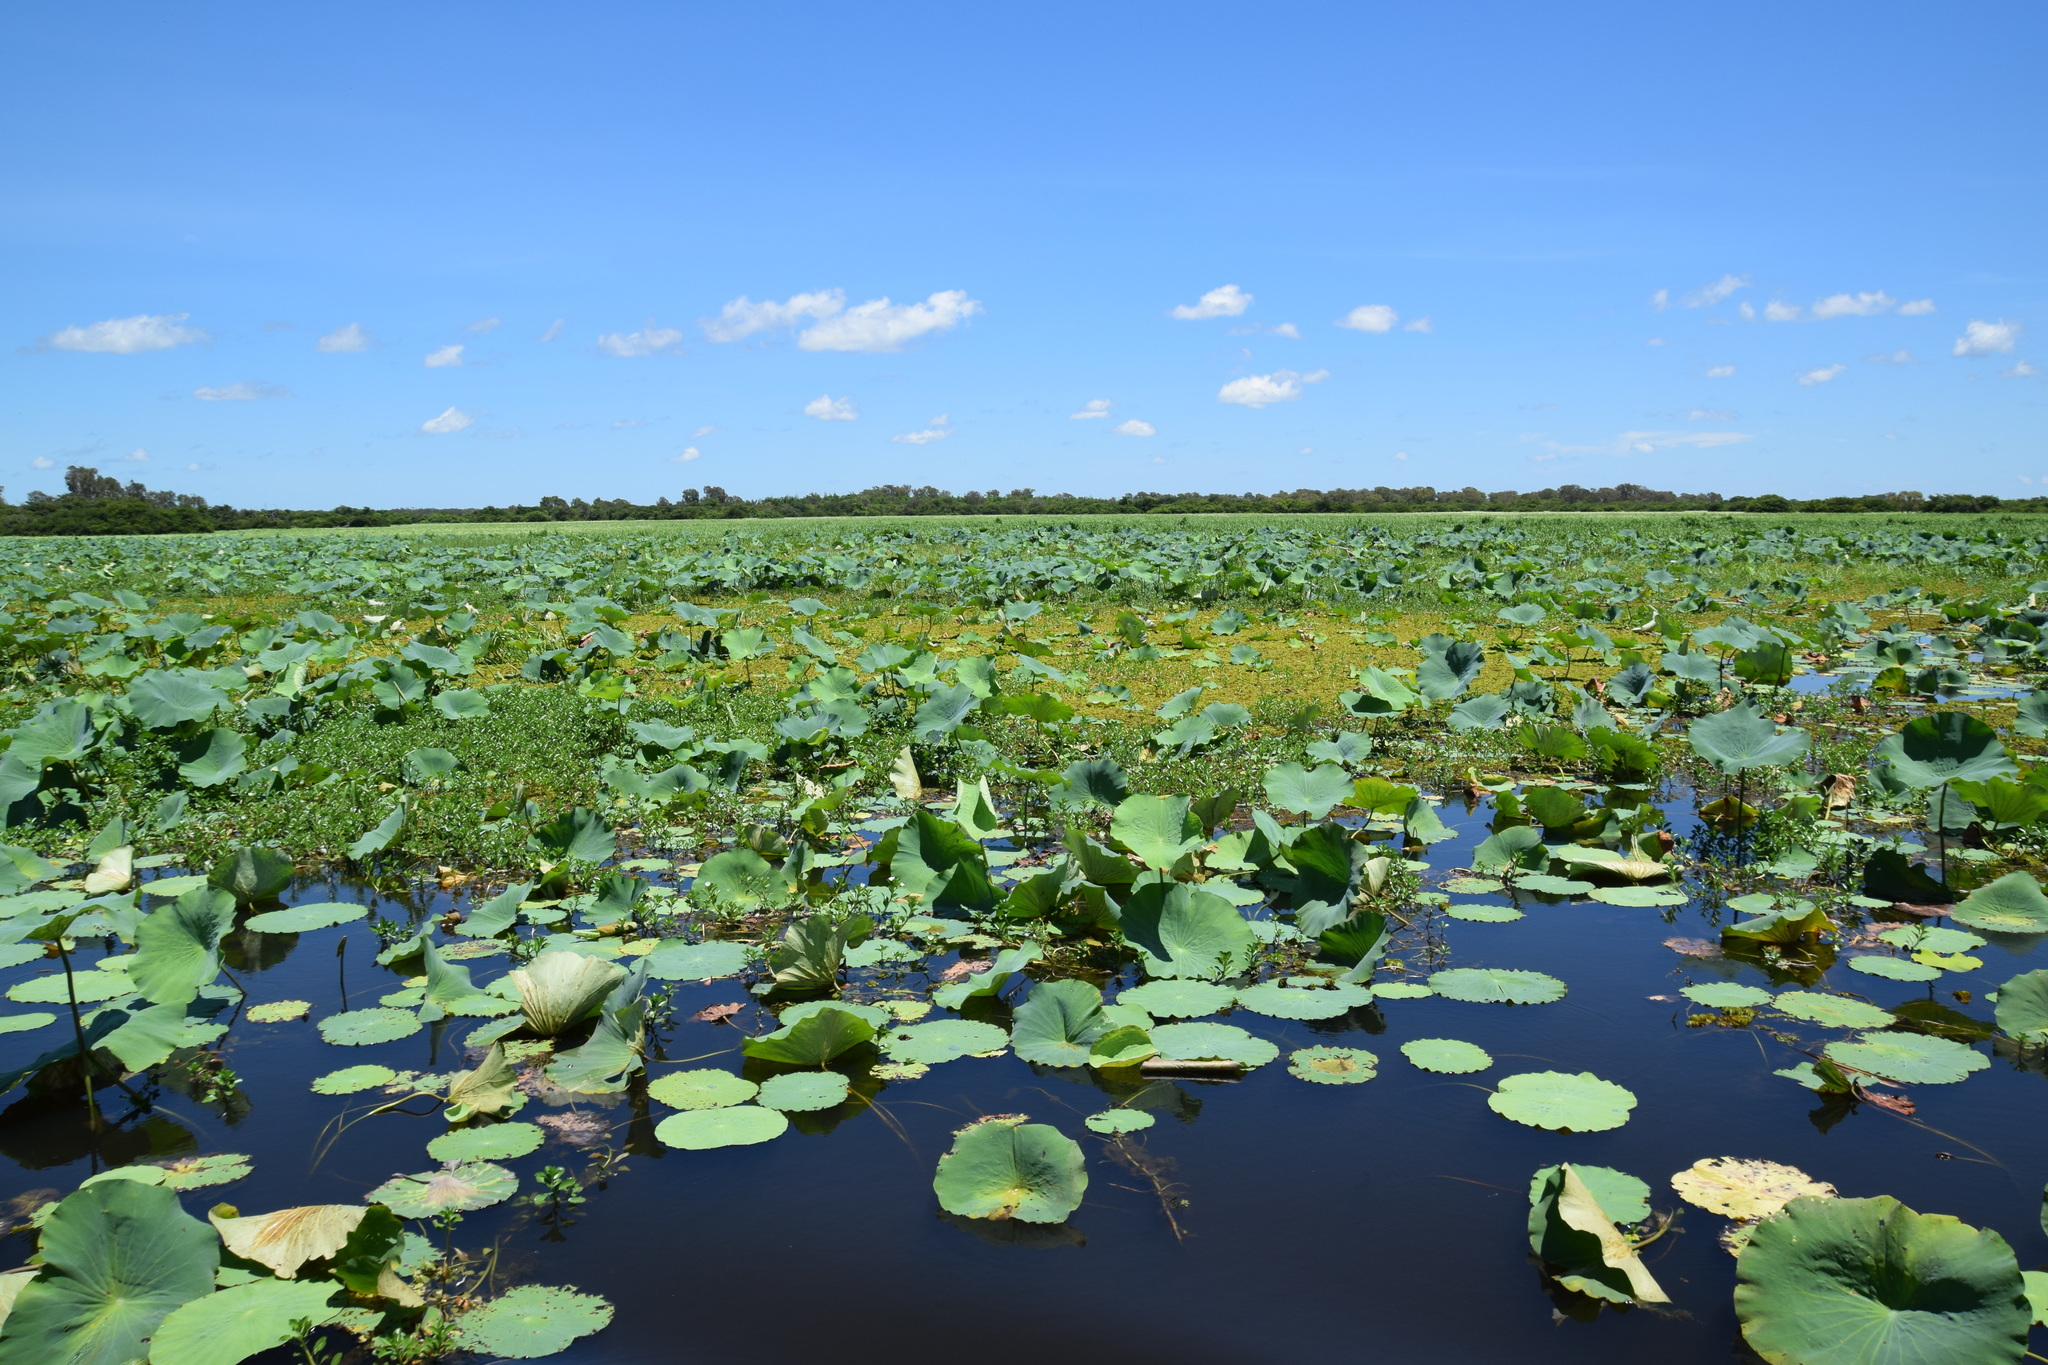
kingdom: Plantae
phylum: Tracheophyta
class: Magnoliopsida
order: Proteales
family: Nelumbonaceae
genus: Nelumbo
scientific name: Nelumbo nucifera
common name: Sacred lotus
